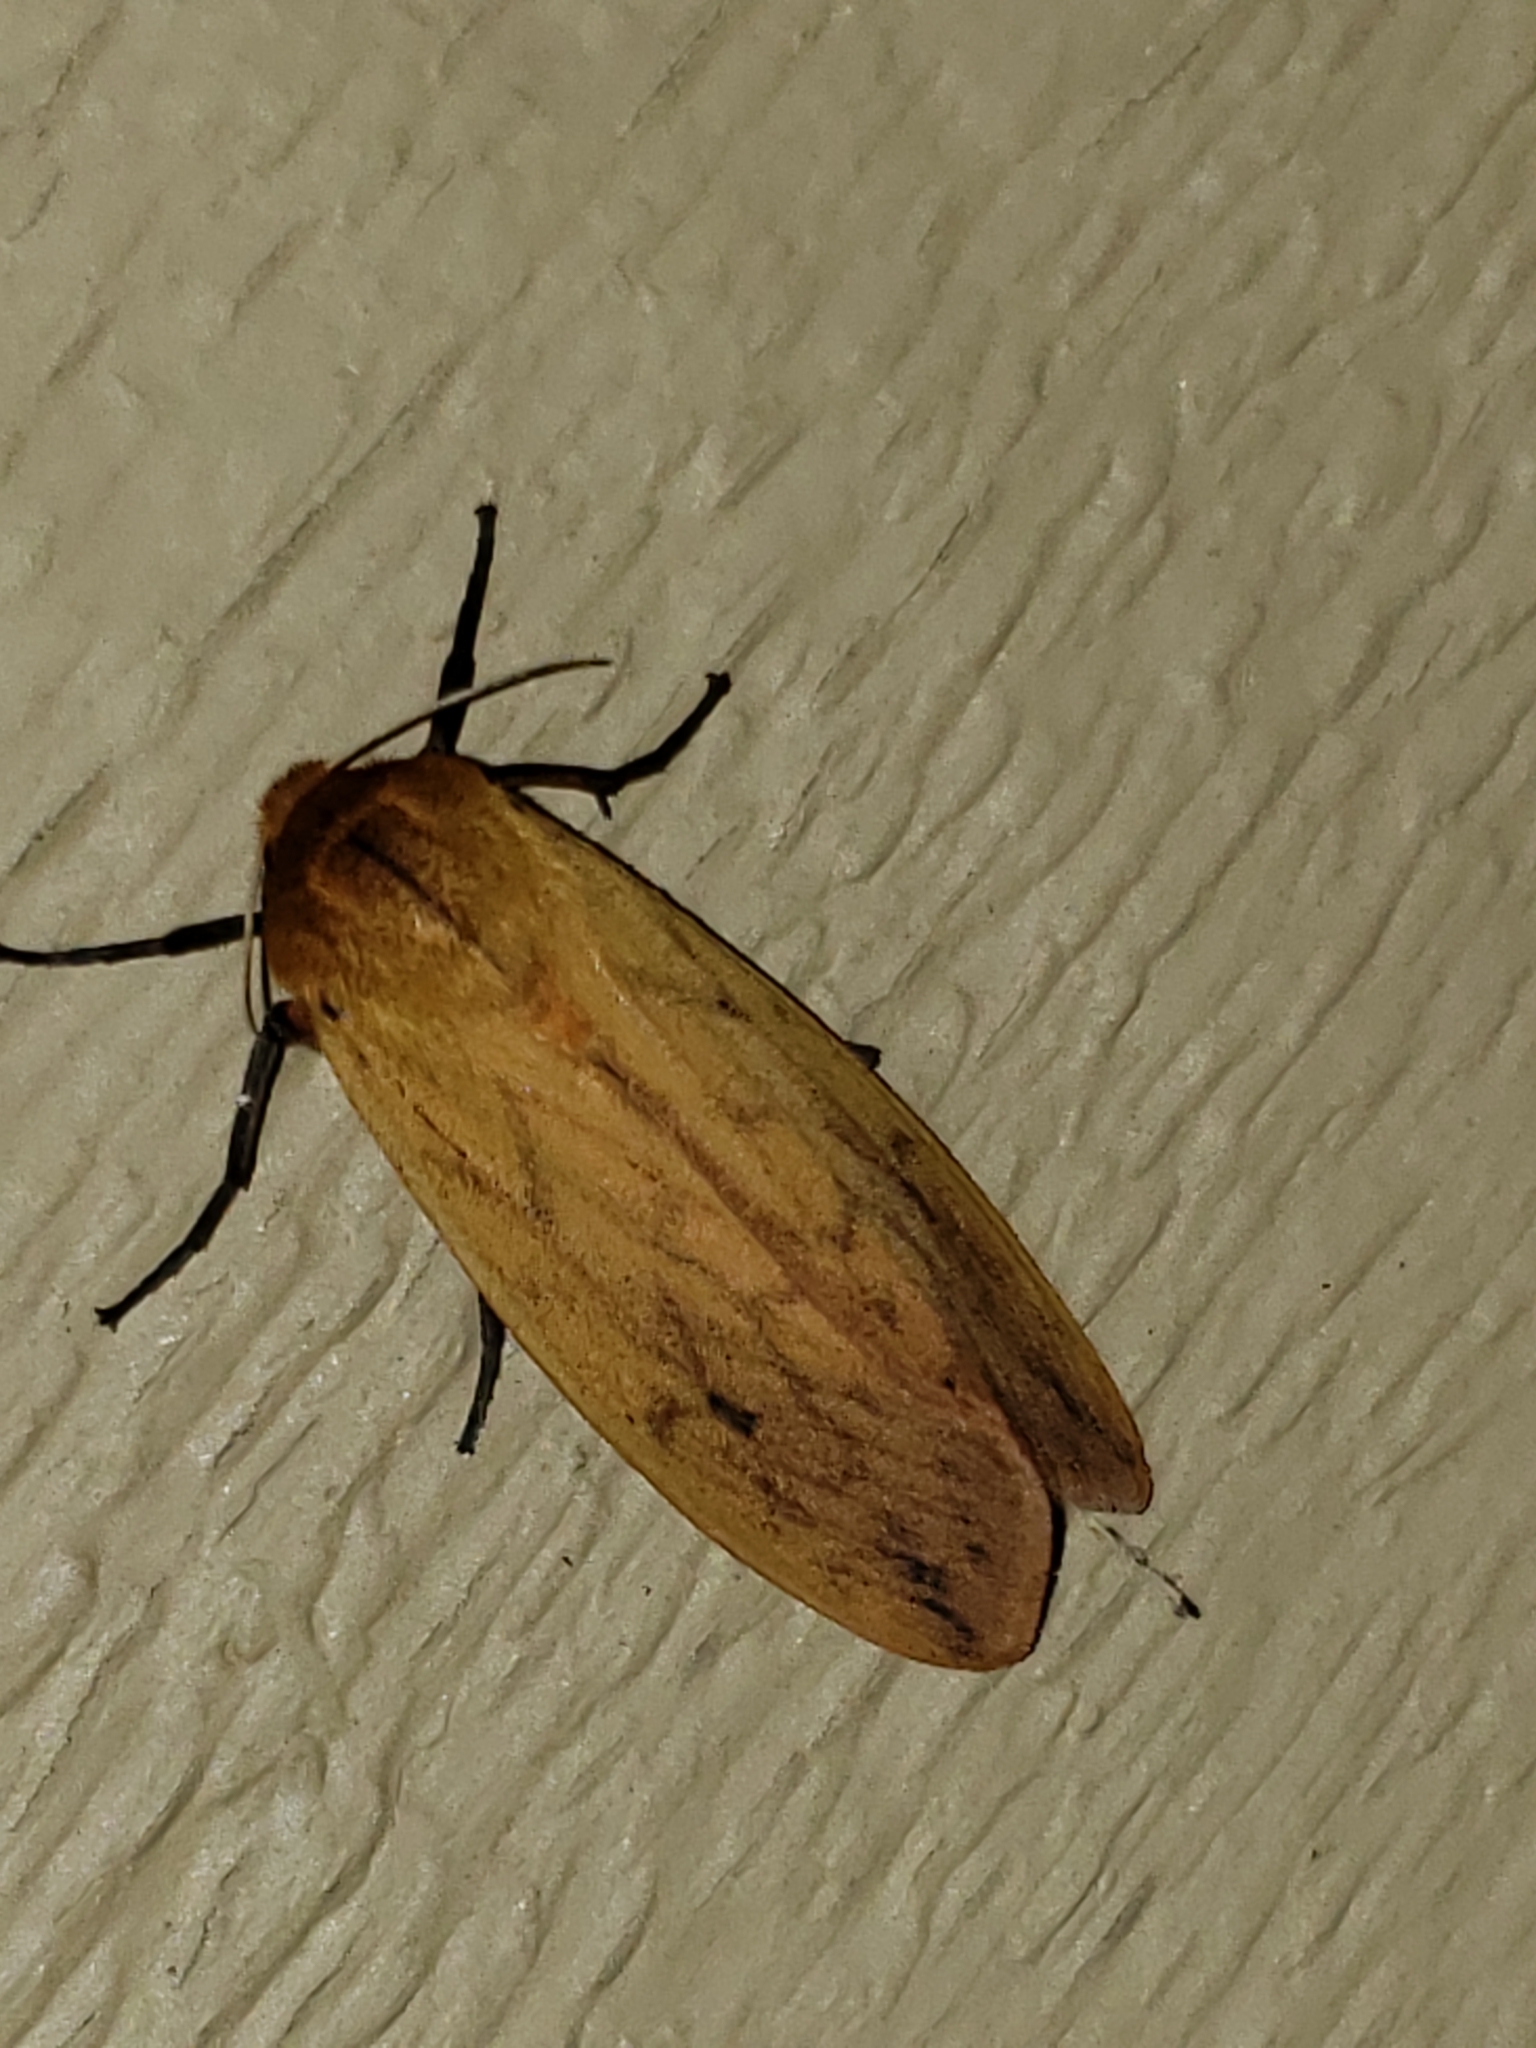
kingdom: Animalia
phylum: Arthropoda
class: Insecta
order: Lepidoptera
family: Erebidae
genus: Pyrrharctia
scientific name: Pyrrharctia isabella
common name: Isabella tiger moth
